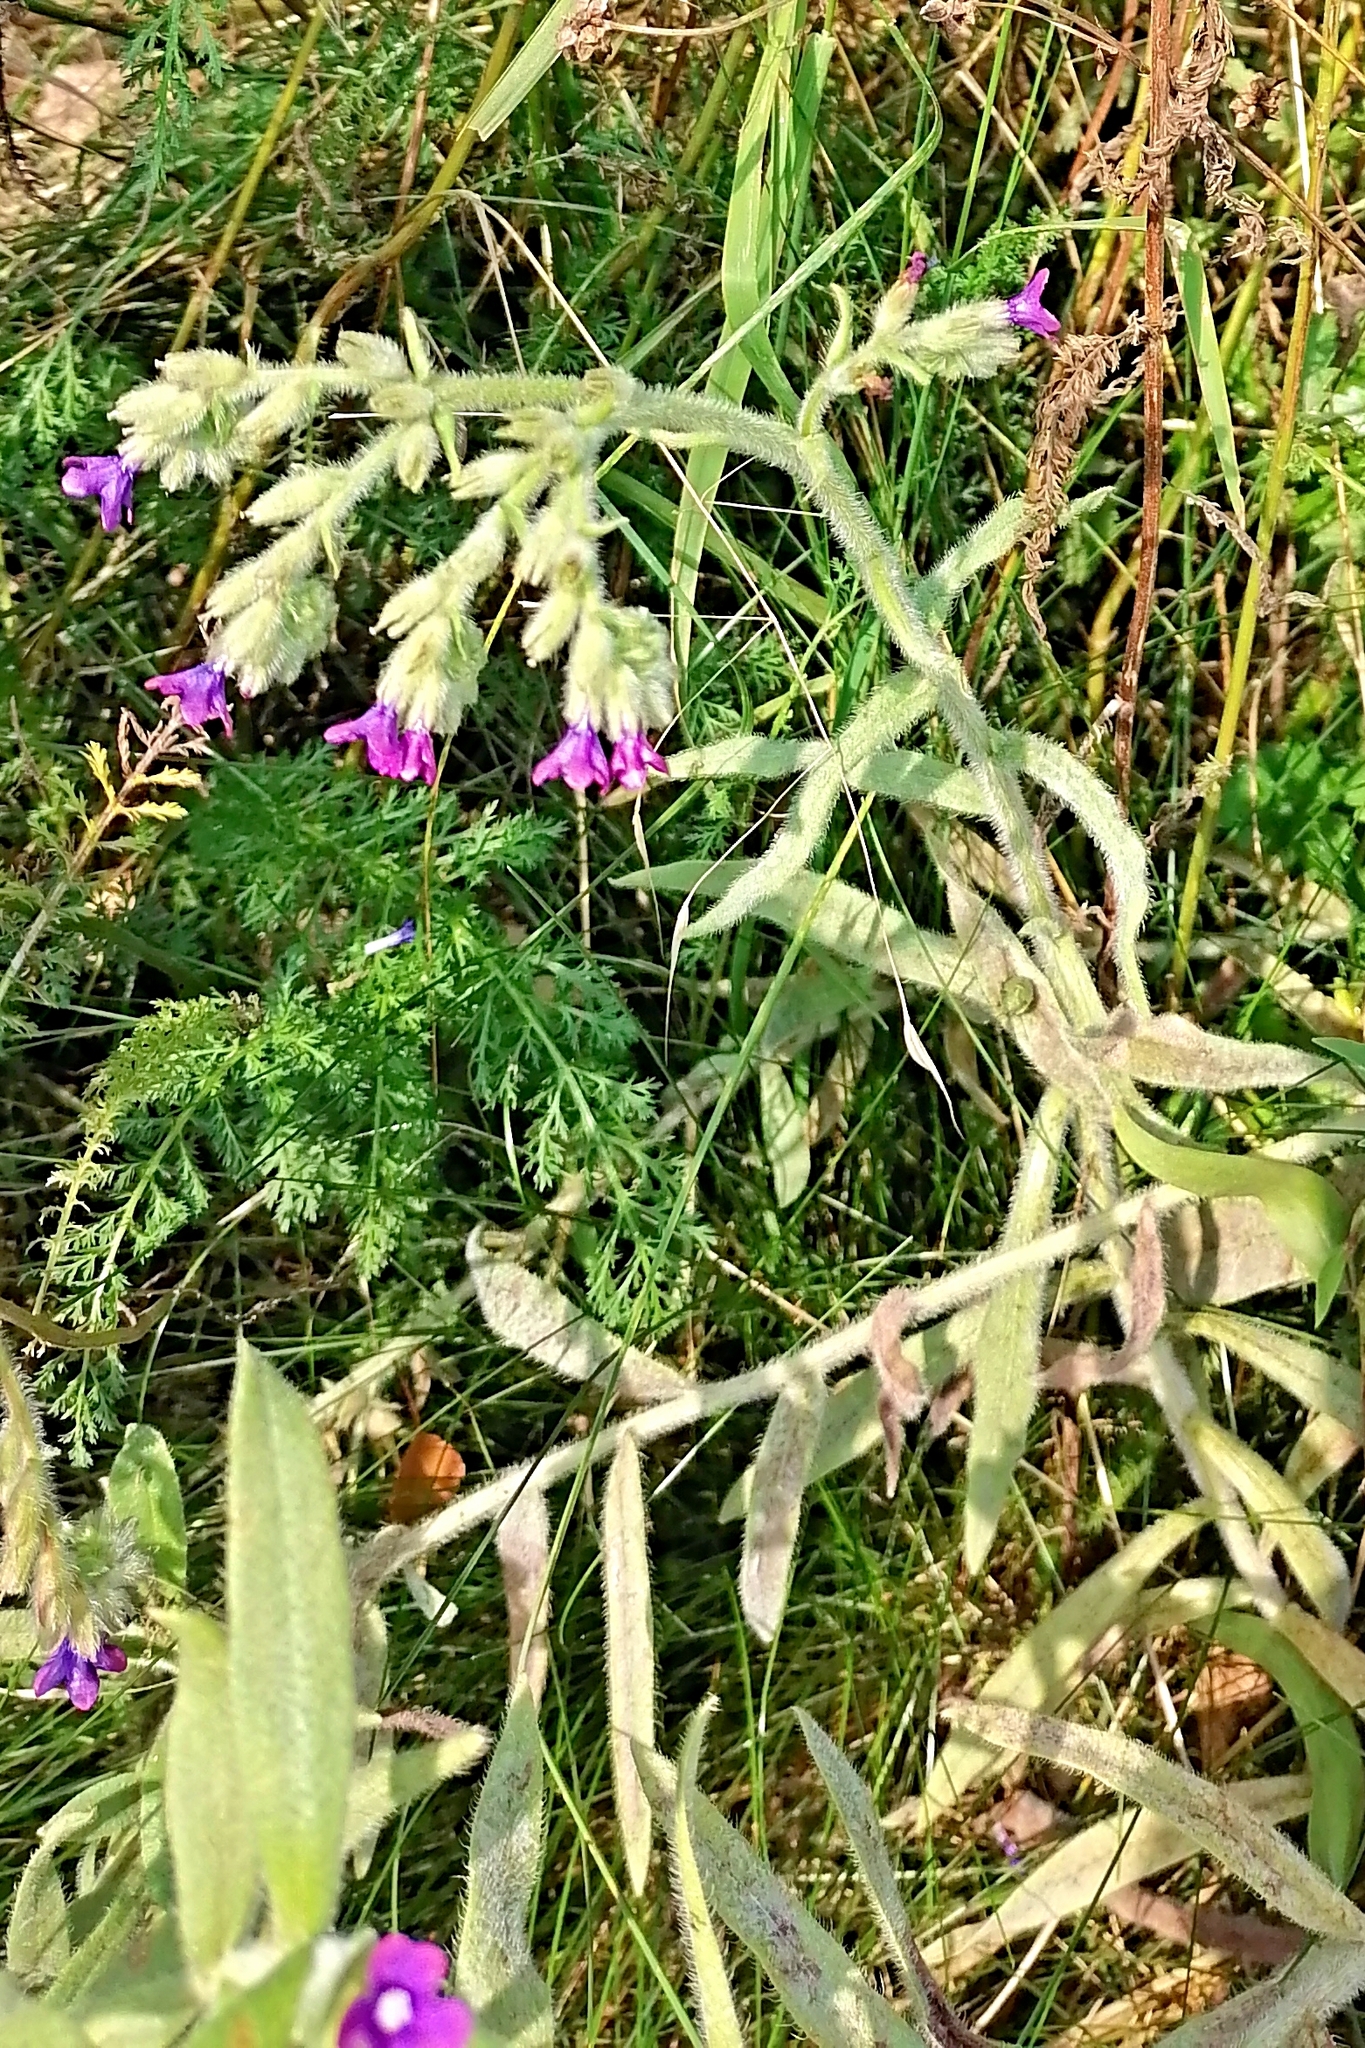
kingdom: Plantae
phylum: Tracheophyta
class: Magnoliopsida
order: Boraginales
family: Boraginaceae
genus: Anchusa
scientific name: Anchusa officinalis
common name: Alkanet
